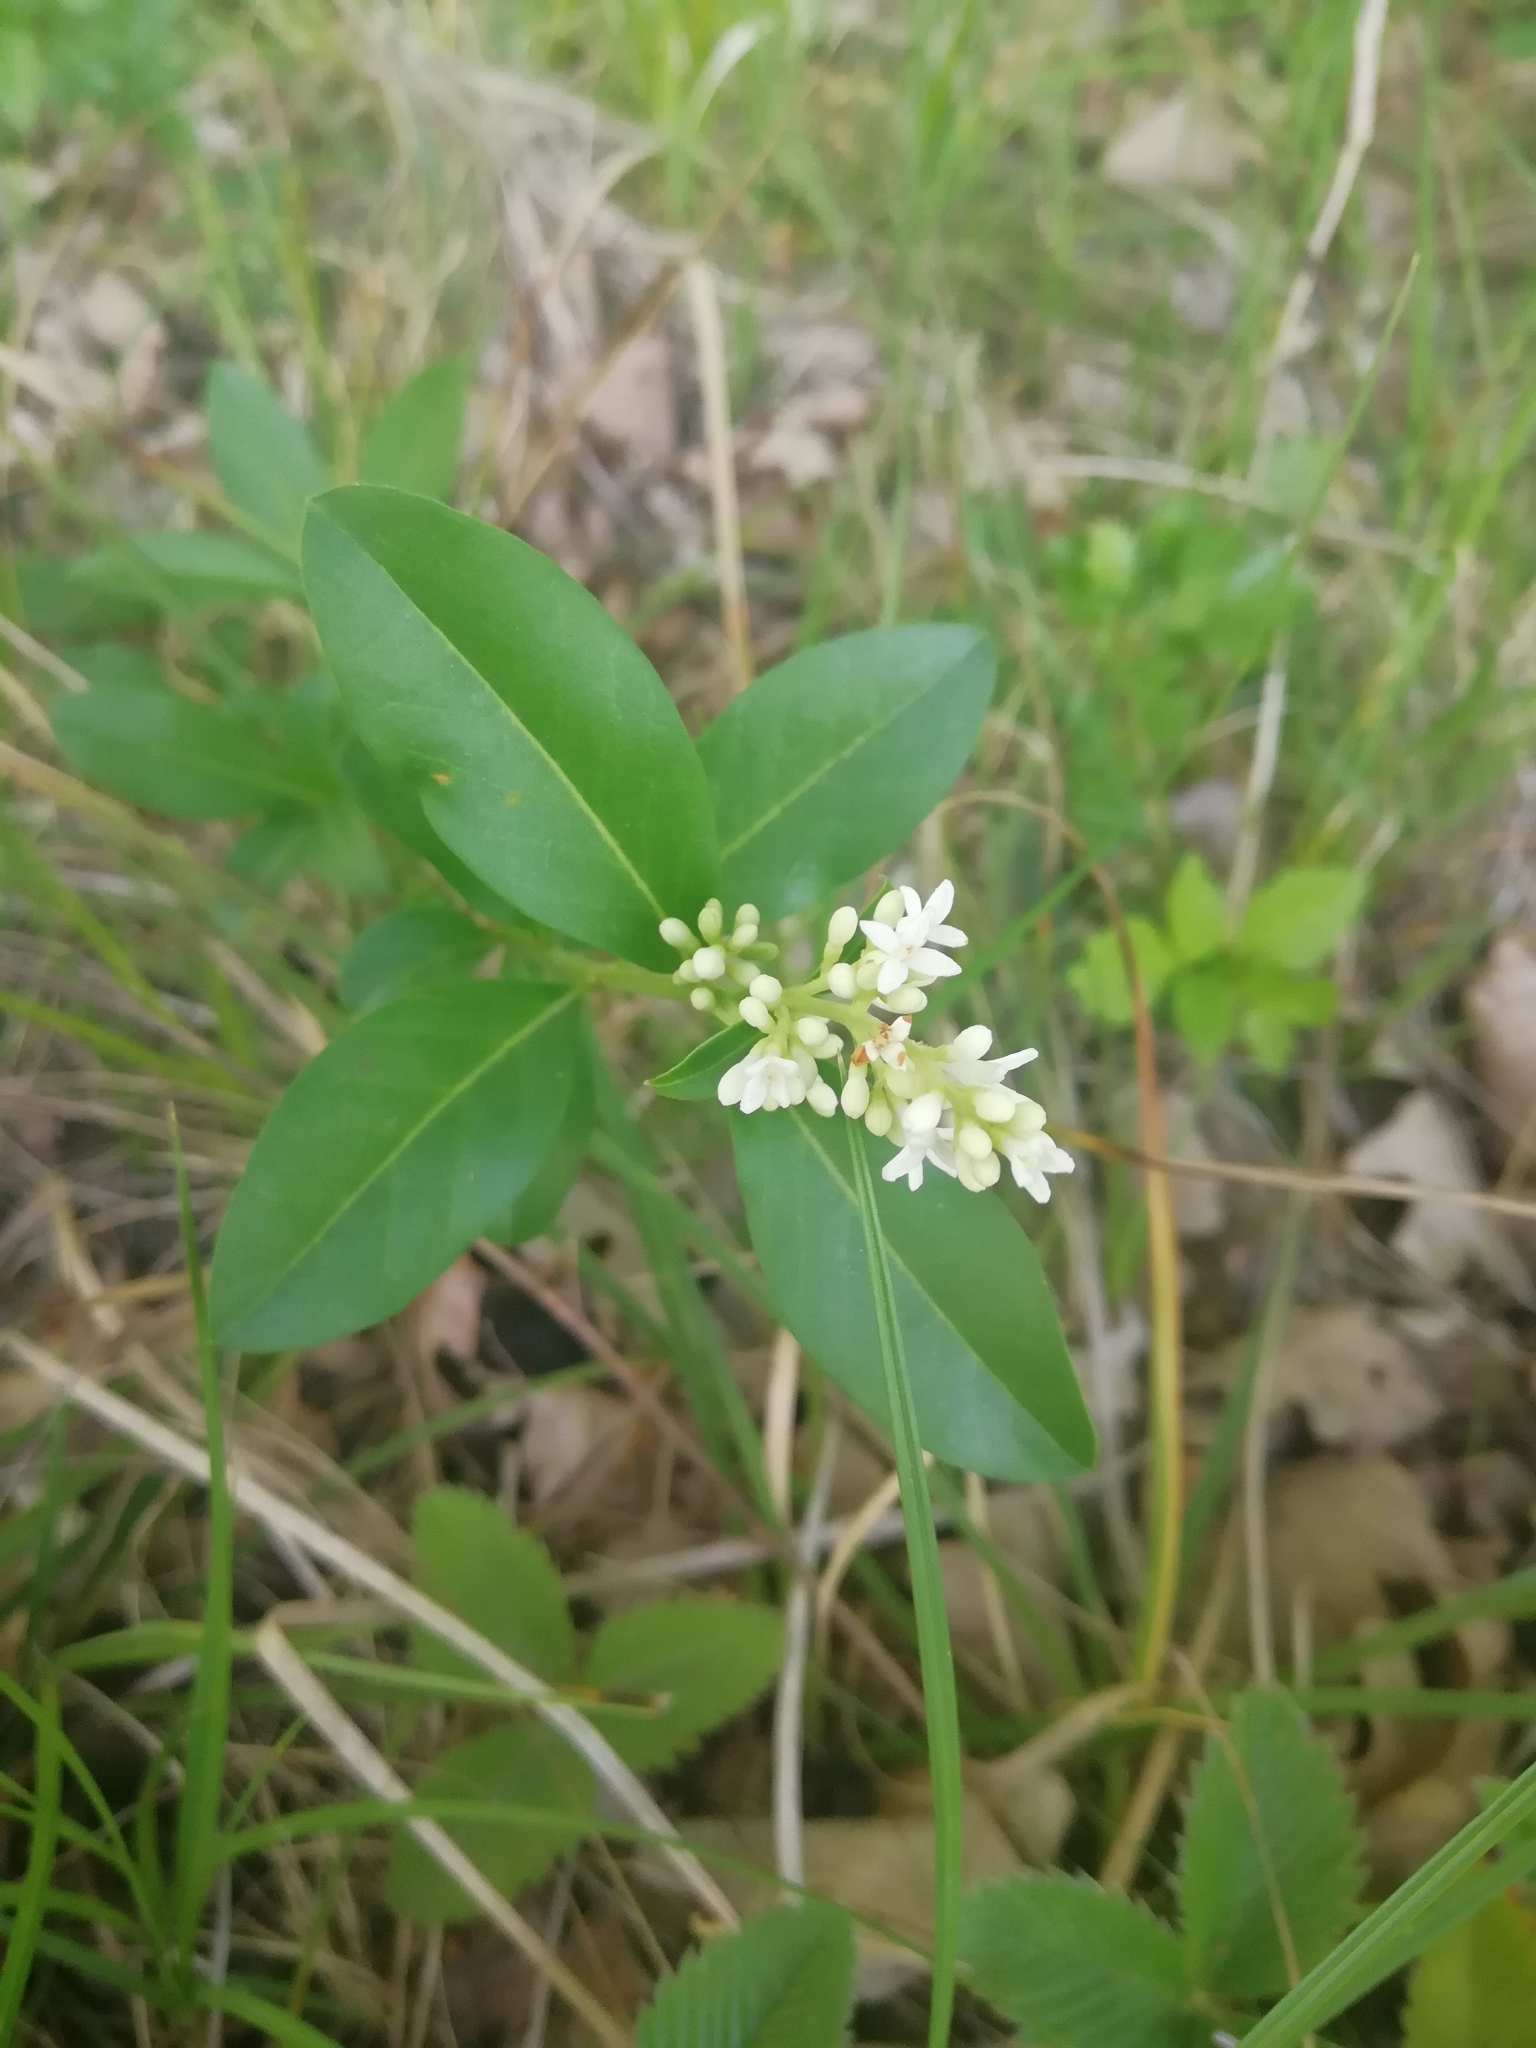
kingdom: Plantae
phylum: Tracheophyta
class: Magnoliopsida
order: Lamiales
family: Oleaceae
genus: Ligustrum
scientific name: Ligustrum vulgare
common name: Wild privet
